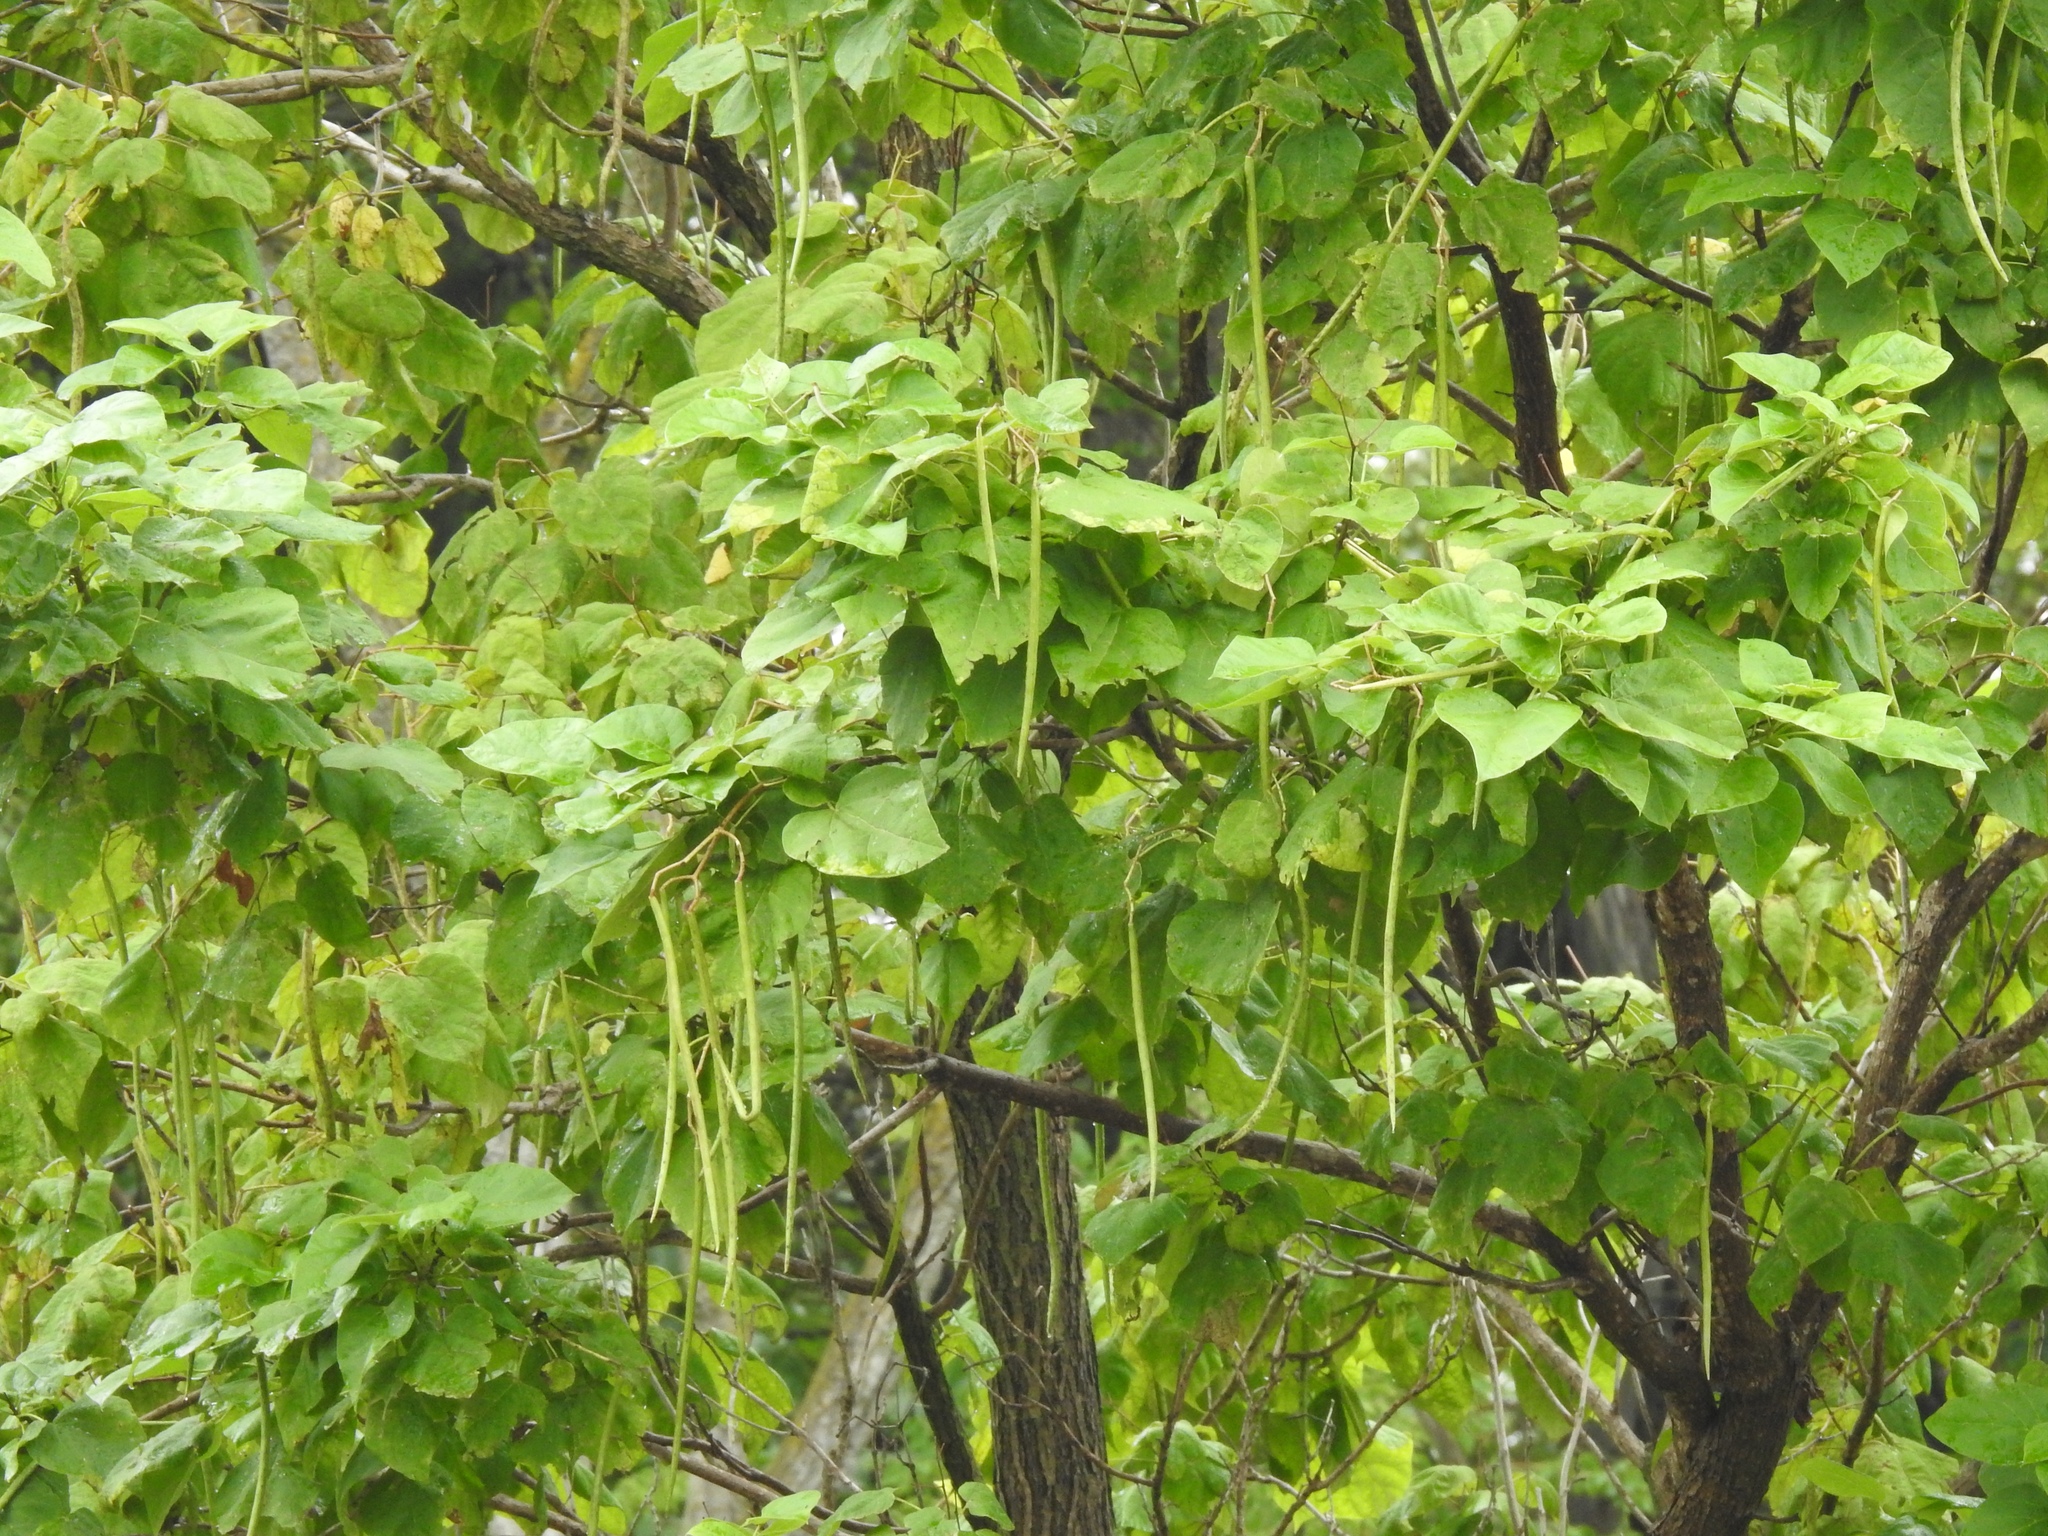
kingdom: Plantae
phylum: Tracheophyta
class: Magnoliopsida
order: Lamiales
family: Bignoniaceae
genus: Catalpa
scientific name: Catalpa speciosa
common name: Northern catalpa
